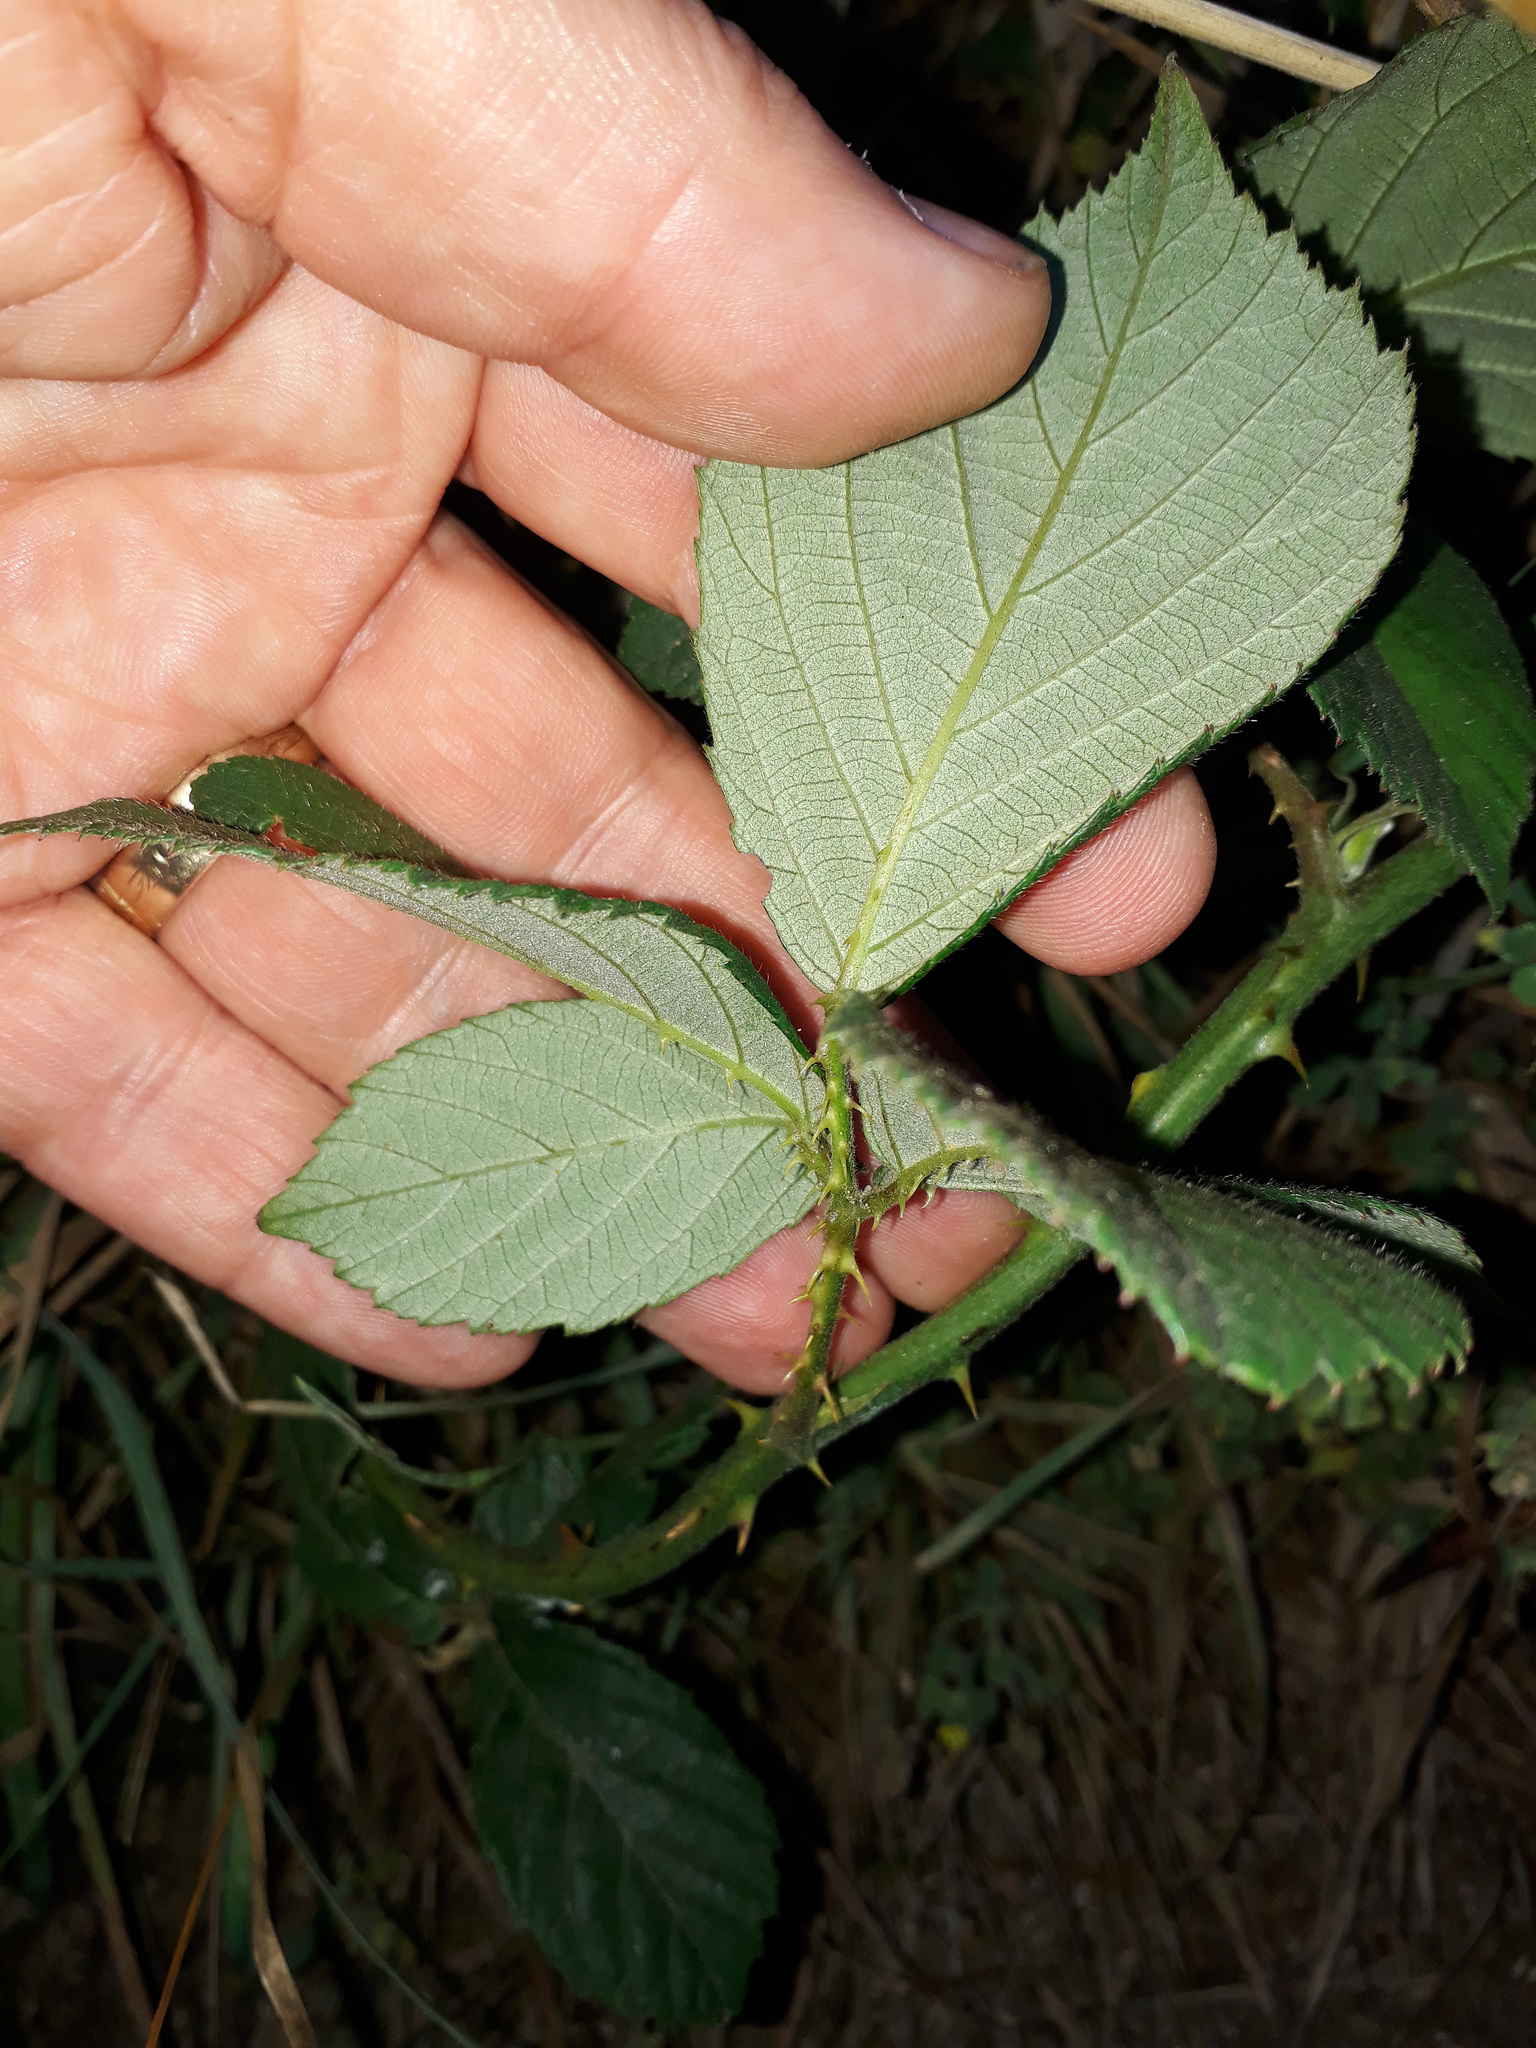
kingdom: Plantae
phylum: Tracheophyta
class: Magnoliopsida
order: Rosales
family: Rosaceae
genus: Rubus
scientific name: Rubus polyanthemus
